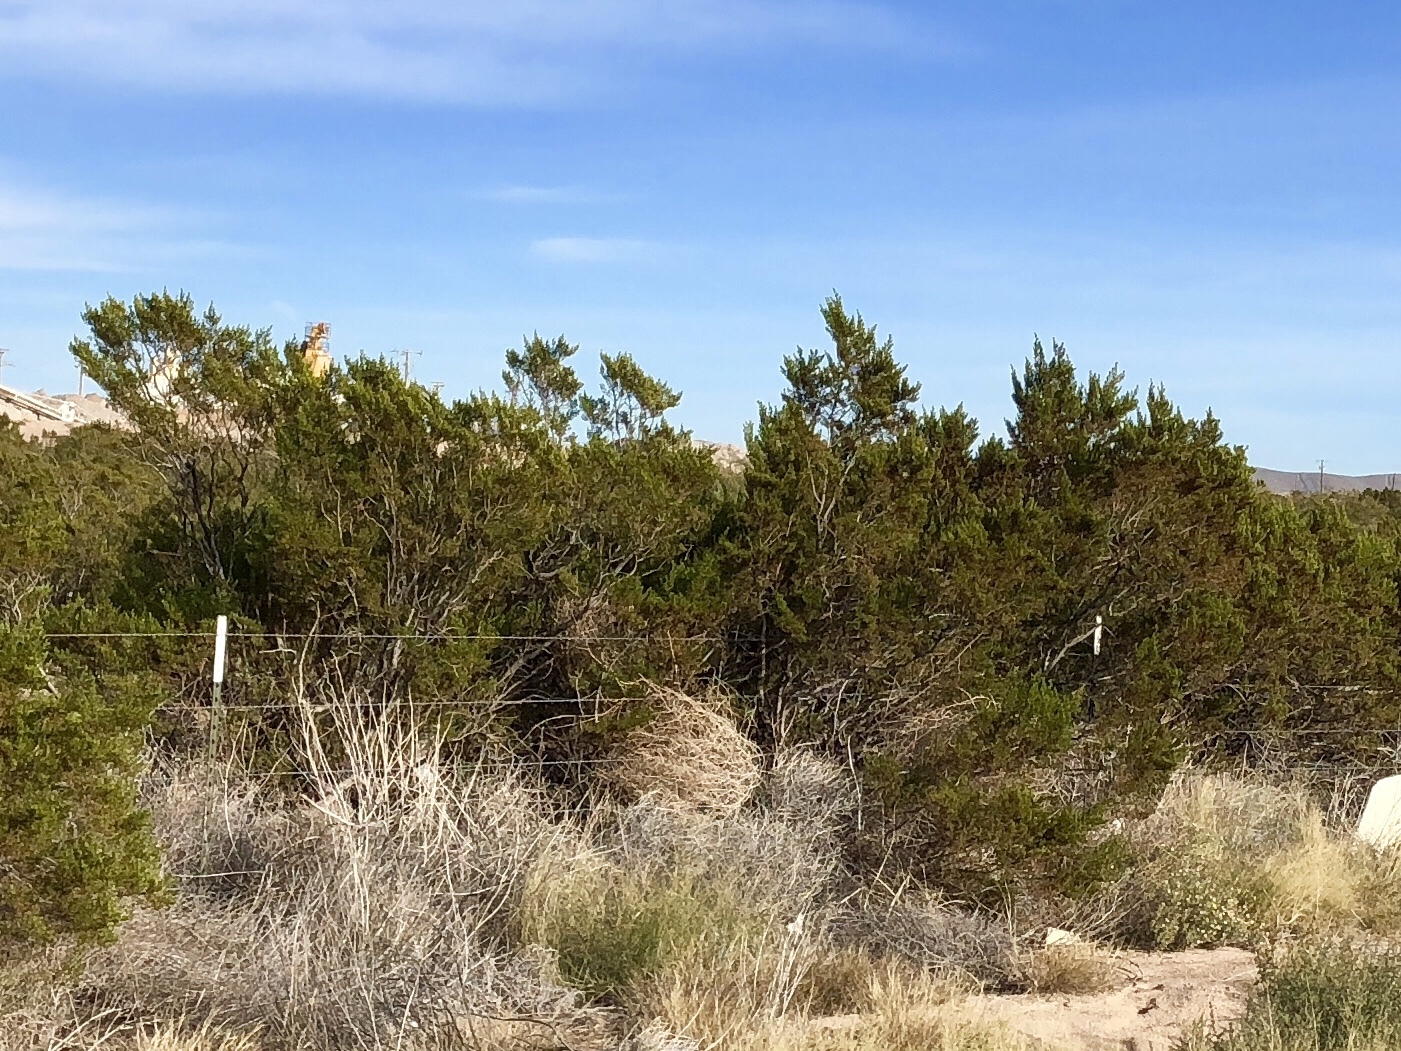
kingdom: Plantae
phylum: Tracheophyta
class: Magnoliopsida
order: Zygophyllales
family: Zygophyllaceae
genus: Larrea
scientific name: Larrea tridentata
